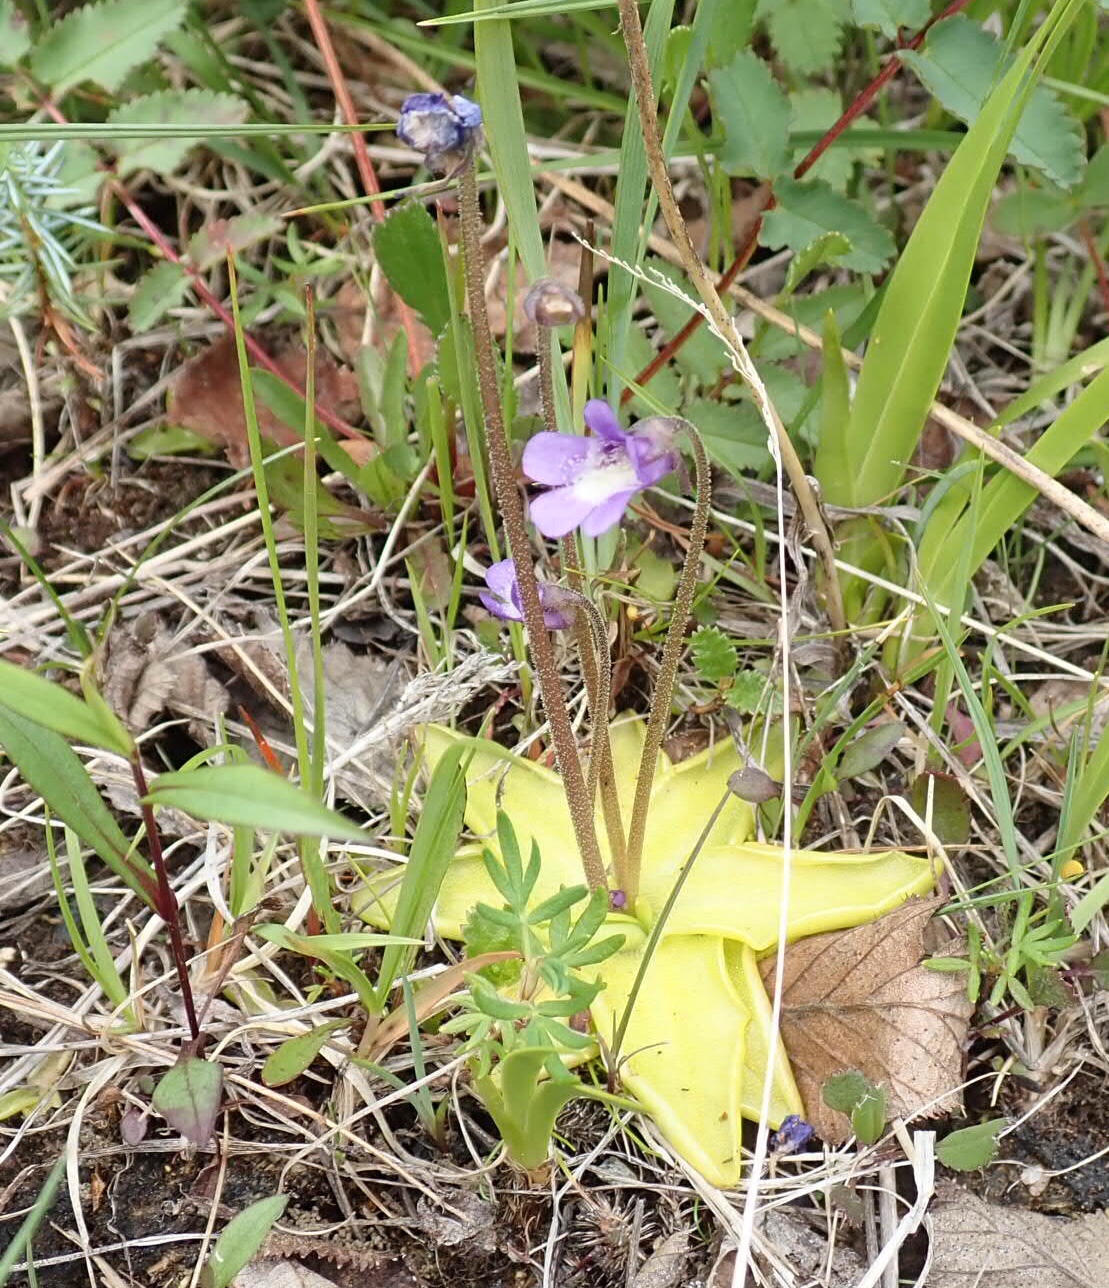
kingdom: Plantae
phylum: Tracheophyta
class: Magnoliopsida
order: Lamiales
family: Lentibulariaceae
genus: Pinguicula
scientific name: Pinguicula vulgaris
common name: Common butterwort
